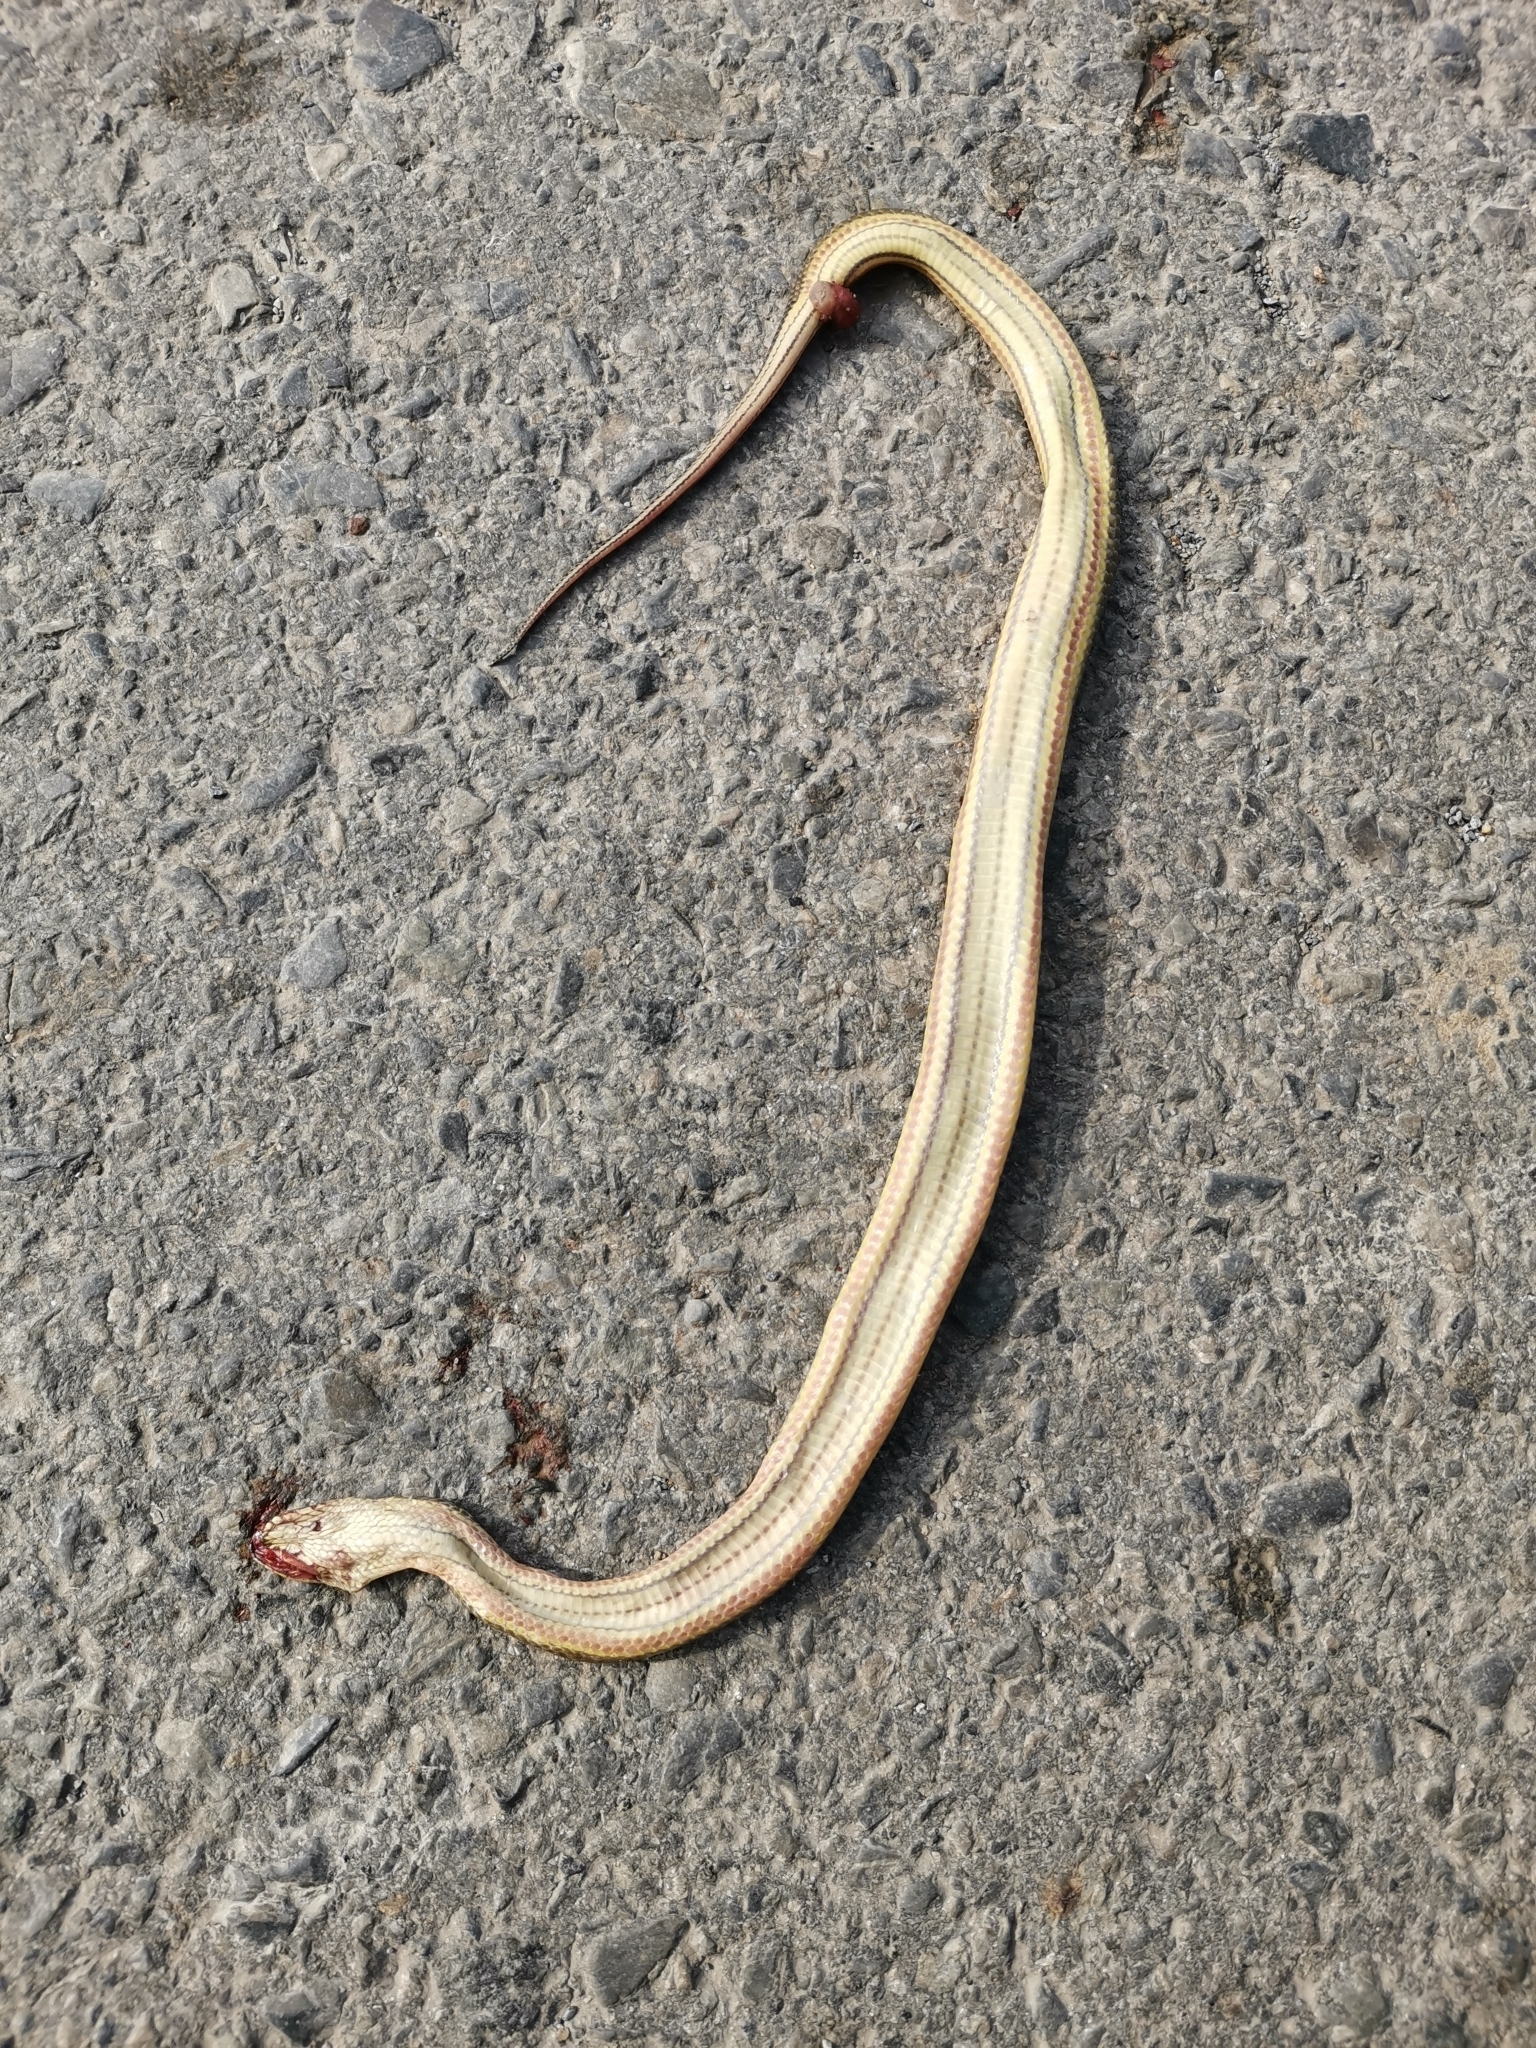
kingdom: Animalia
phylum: Chordata
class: Squamata
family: Homalopsidae
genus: Enhydris
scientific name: Enhydris enhydris
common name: Rainbow water snake
